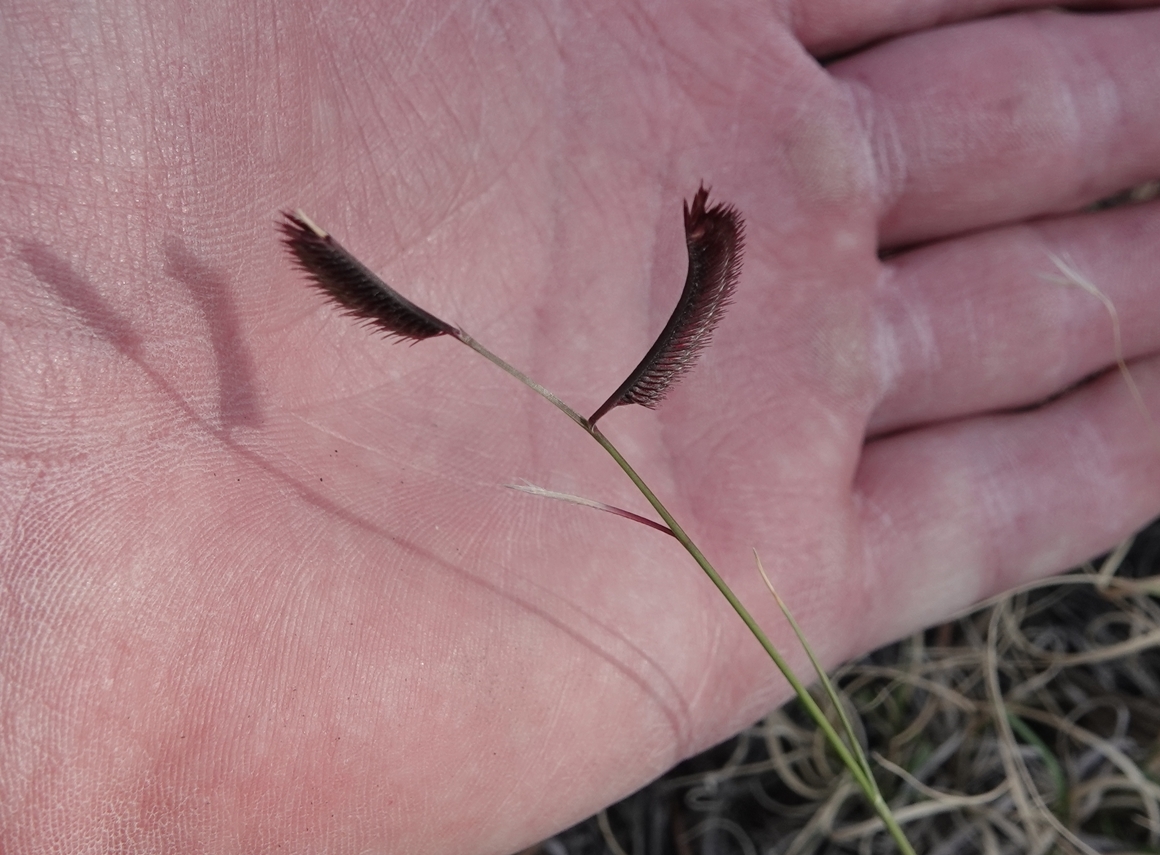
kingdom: Plantae
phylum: Tracheophyta
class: Liliopsida
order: Poales
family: Poaceae
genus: Bouteloua
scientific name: Bouteloua gracilis
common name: Blue grama
